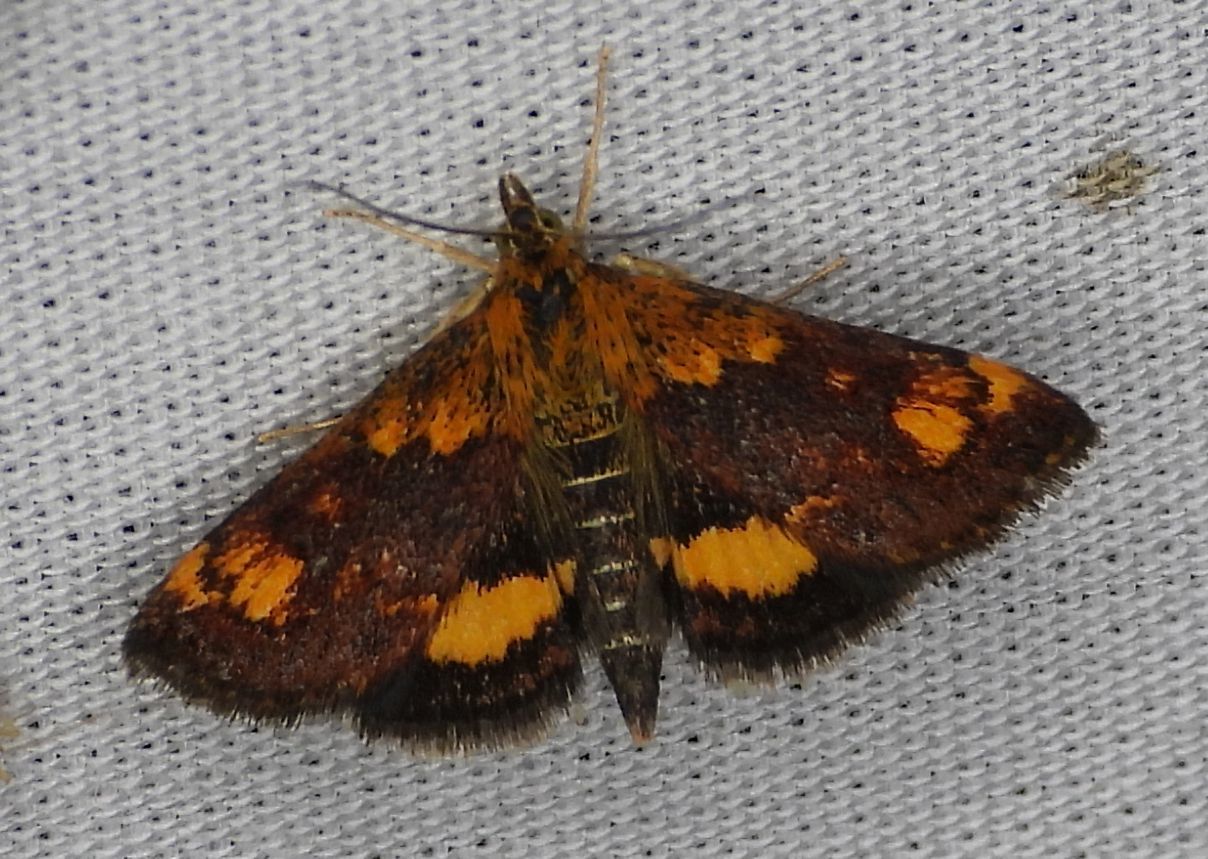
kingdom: Animalia
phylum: Arthropoda
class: Insecta
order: Lepidoptera
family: Crambidae
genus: Pyrausta
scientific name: Pyrausta orphisalis
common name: Orange mint moth
